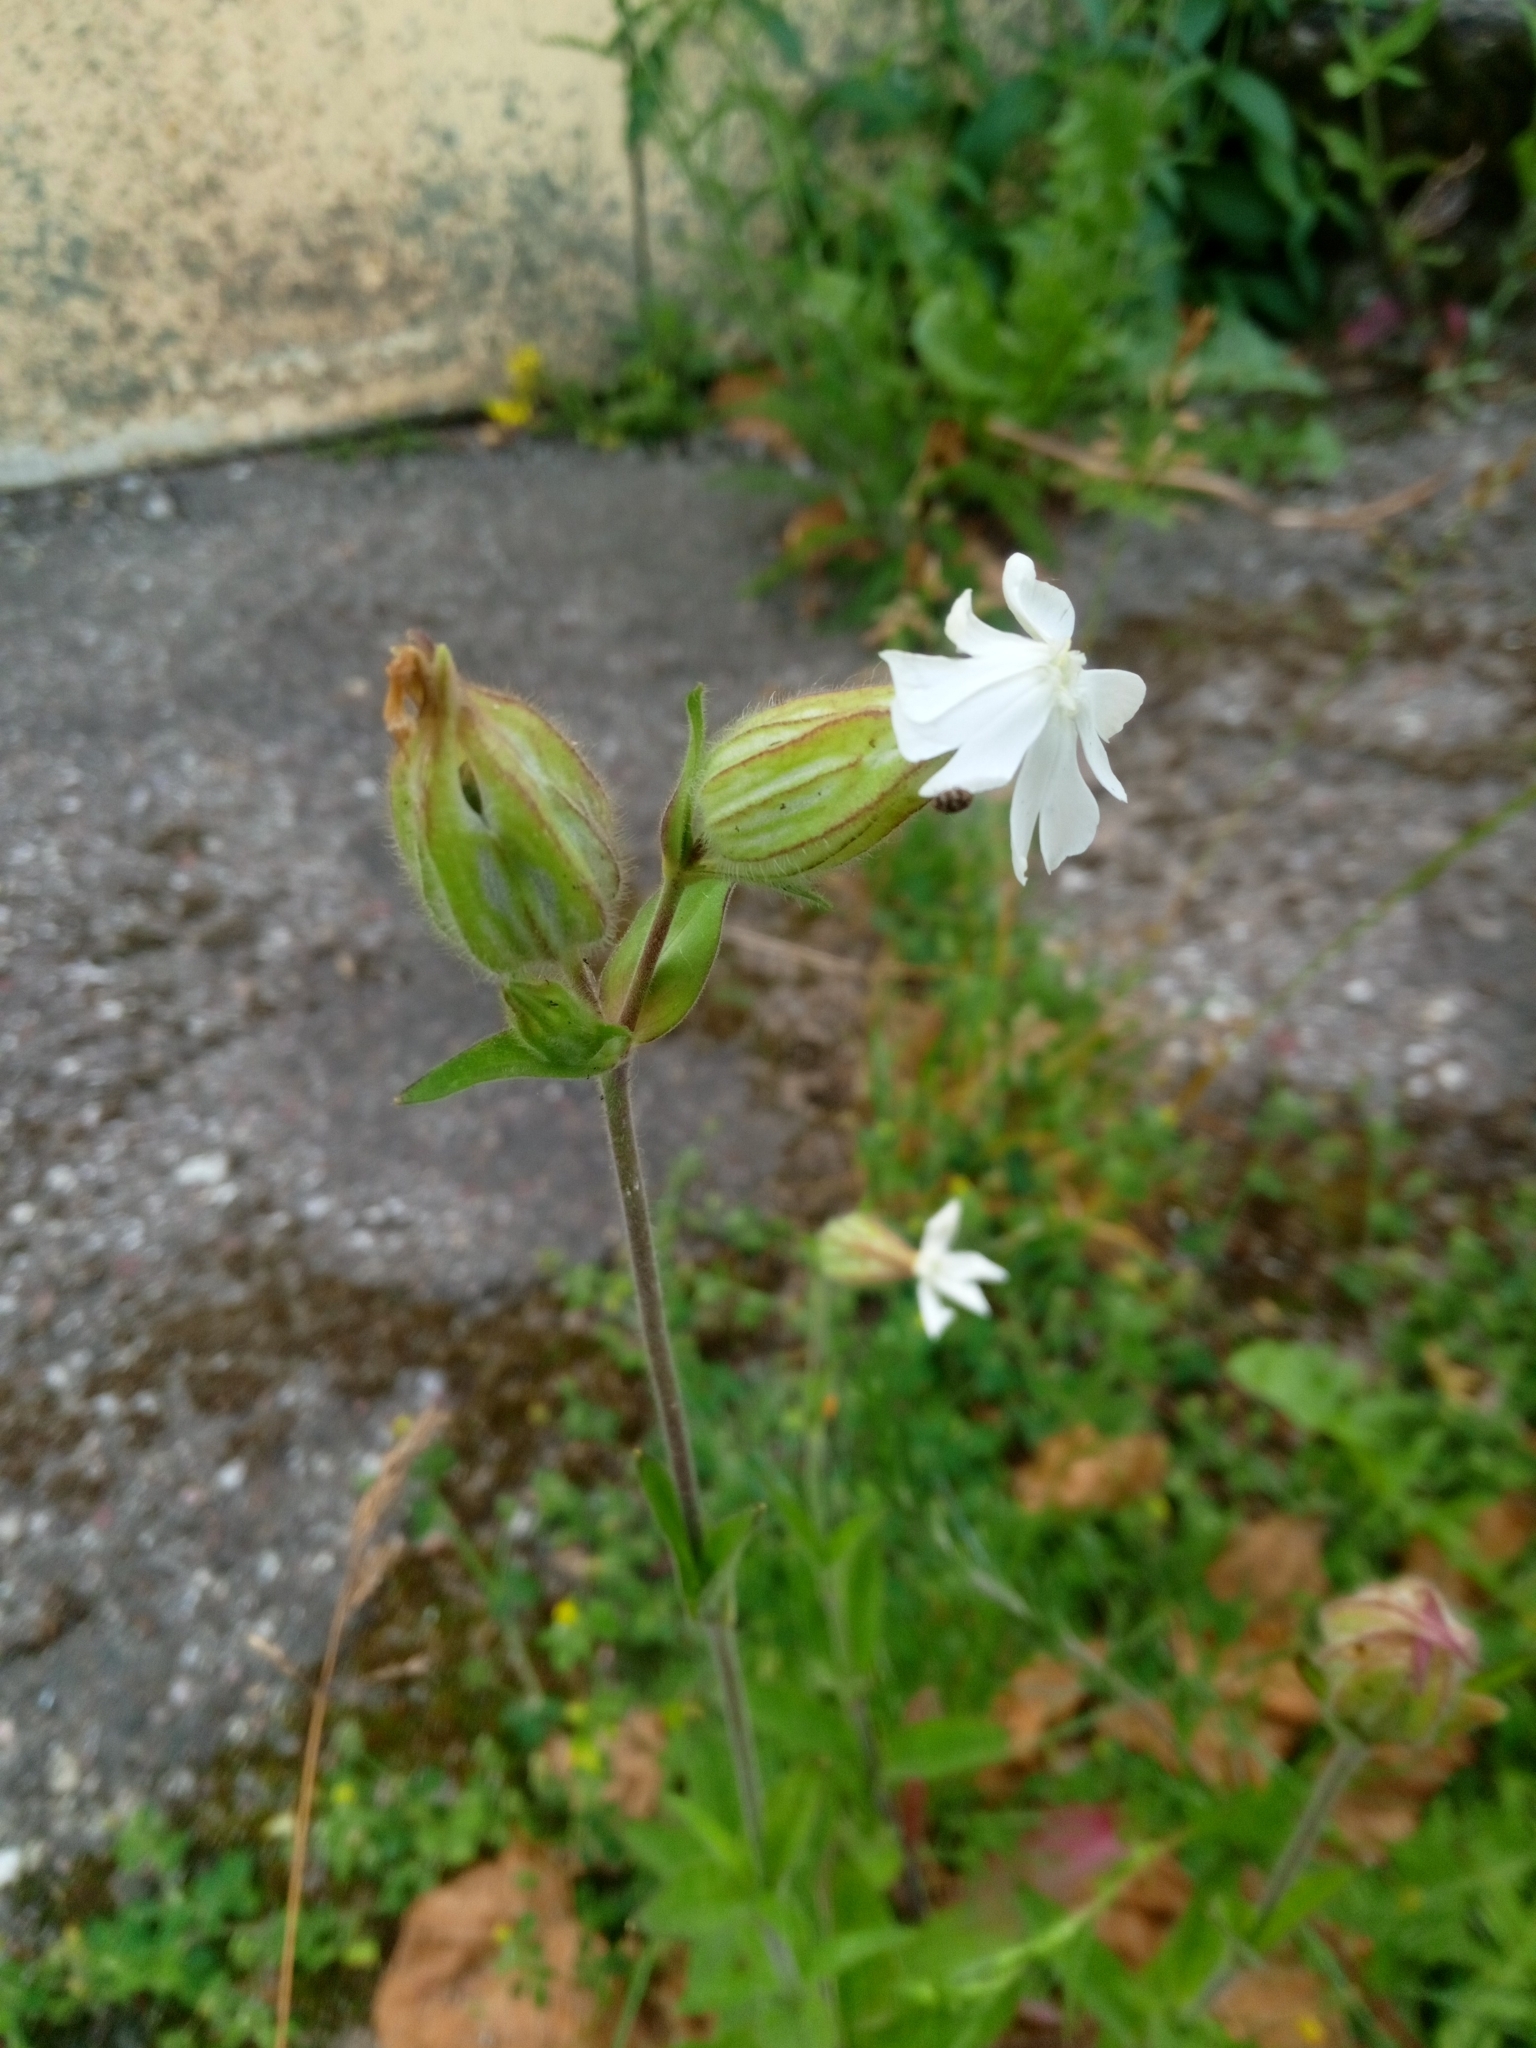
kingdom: Plantae
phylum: Tracheophyta
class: Magnoliopsida
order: Caryophyllales
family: Caryophyllaceae
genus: Silene
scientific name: Silene latifolia
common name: White campion
